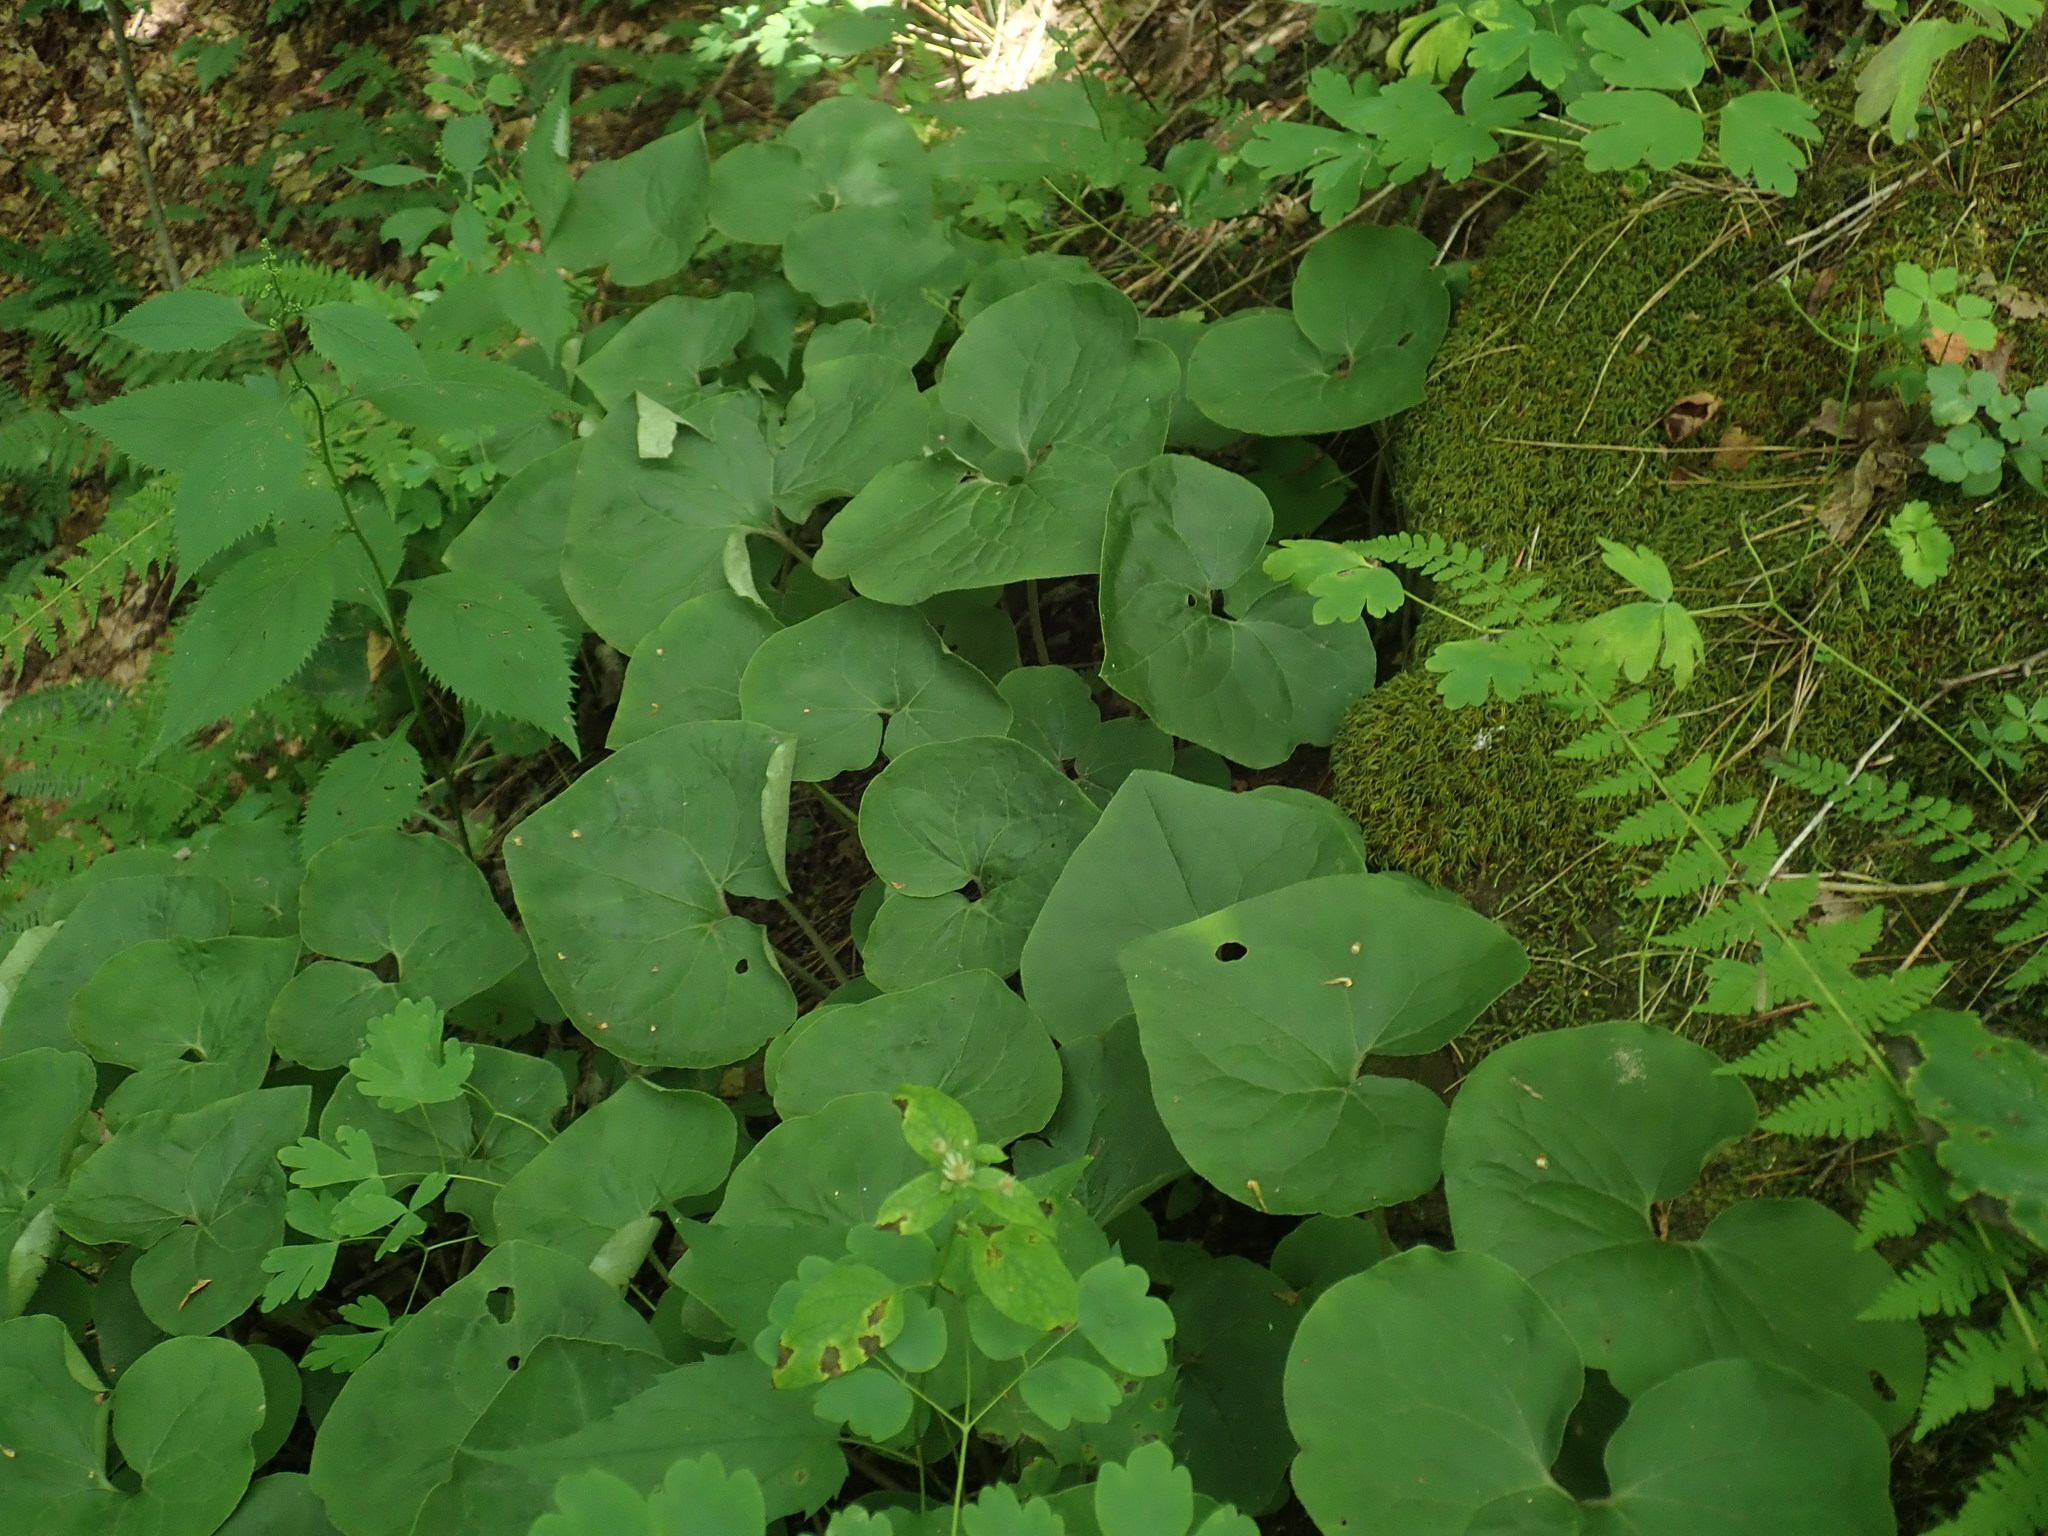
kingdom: Plantae
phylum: Tracheophyta
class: Magnoliopsida
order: Piperales
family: Aristolochiaceae
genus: Asarum
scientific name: Asarum canadense
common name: Wild ginger
